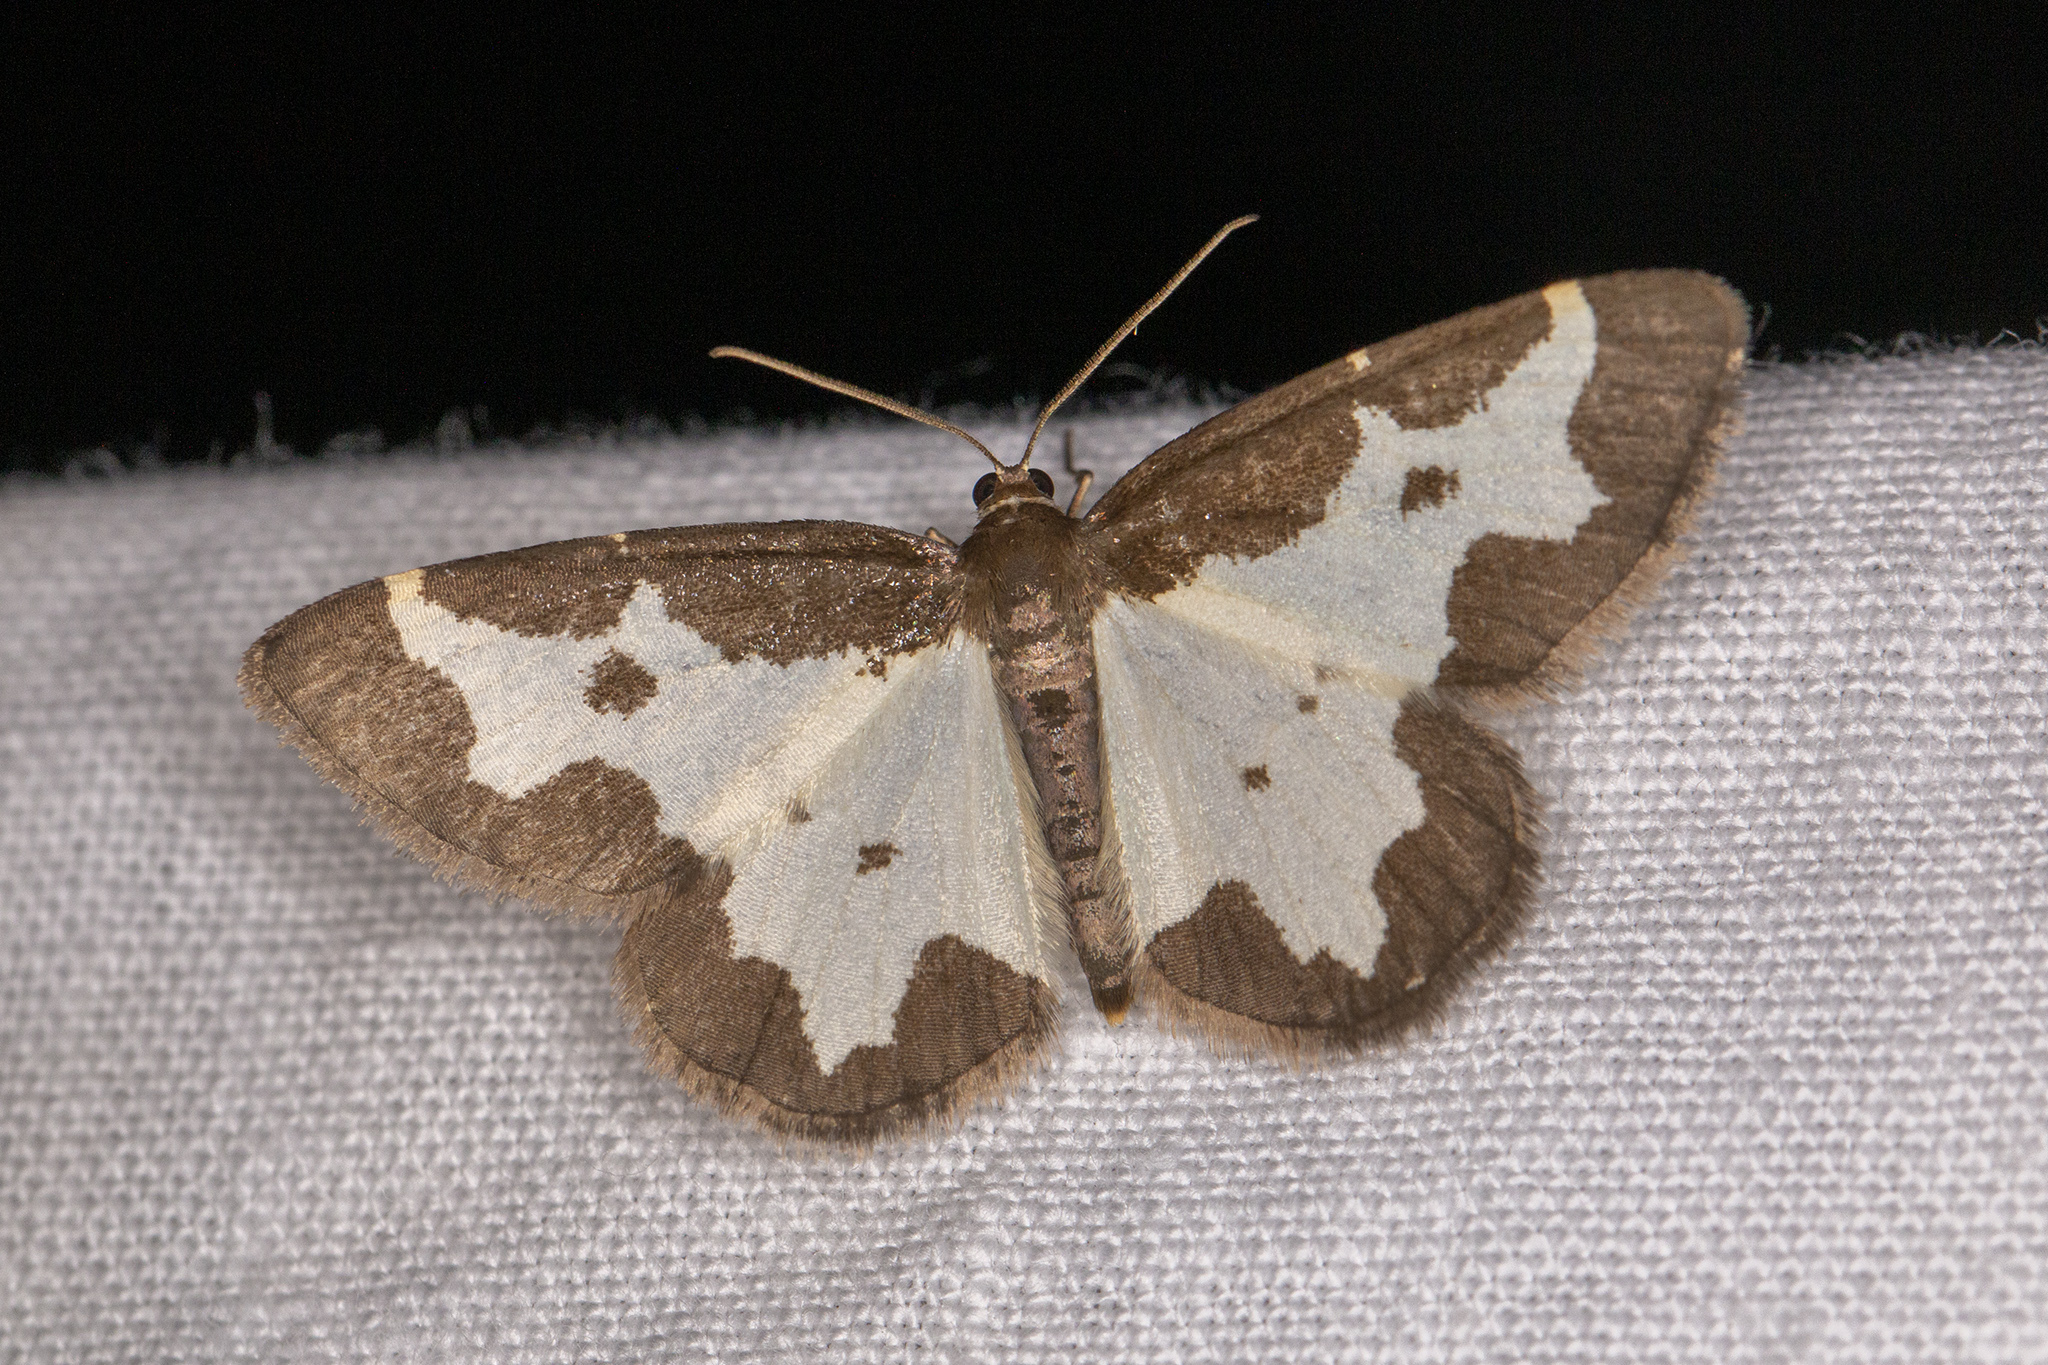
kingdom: Animalia
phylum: Arthropoda
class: Insecta
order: Lepidoptera
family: Geometridae
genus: Lomaspilis
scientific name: Lomaspilis marginata
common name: Clouded border
